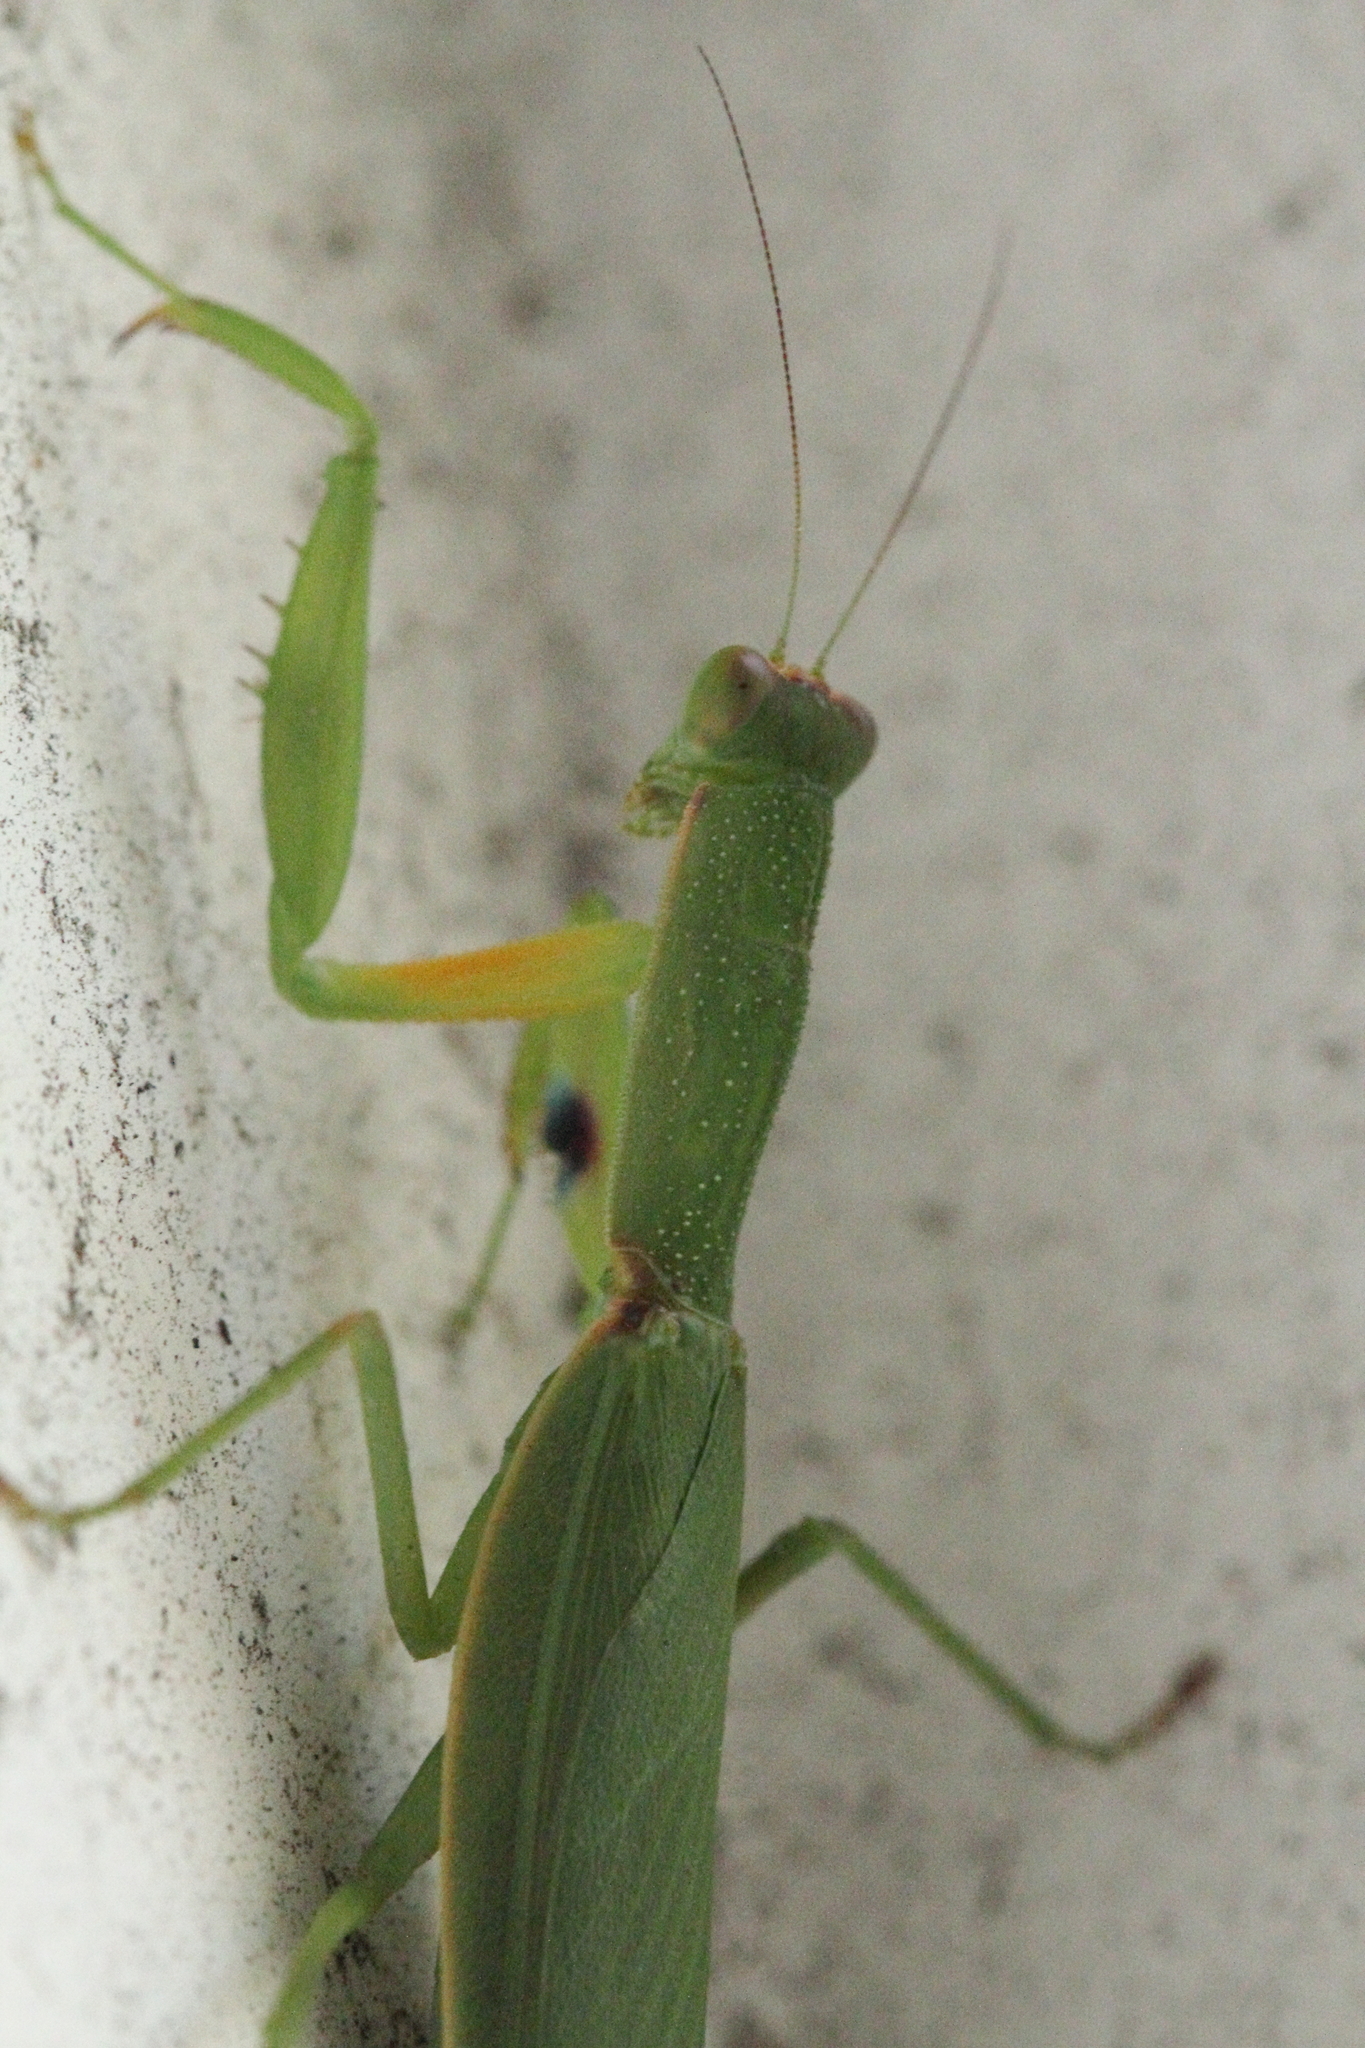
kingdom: Animalia
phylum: Arthropoda
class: Insecta
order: Mantodea
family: Mantidae
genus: Orthodera
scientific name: Orthodera novaezealandiae
